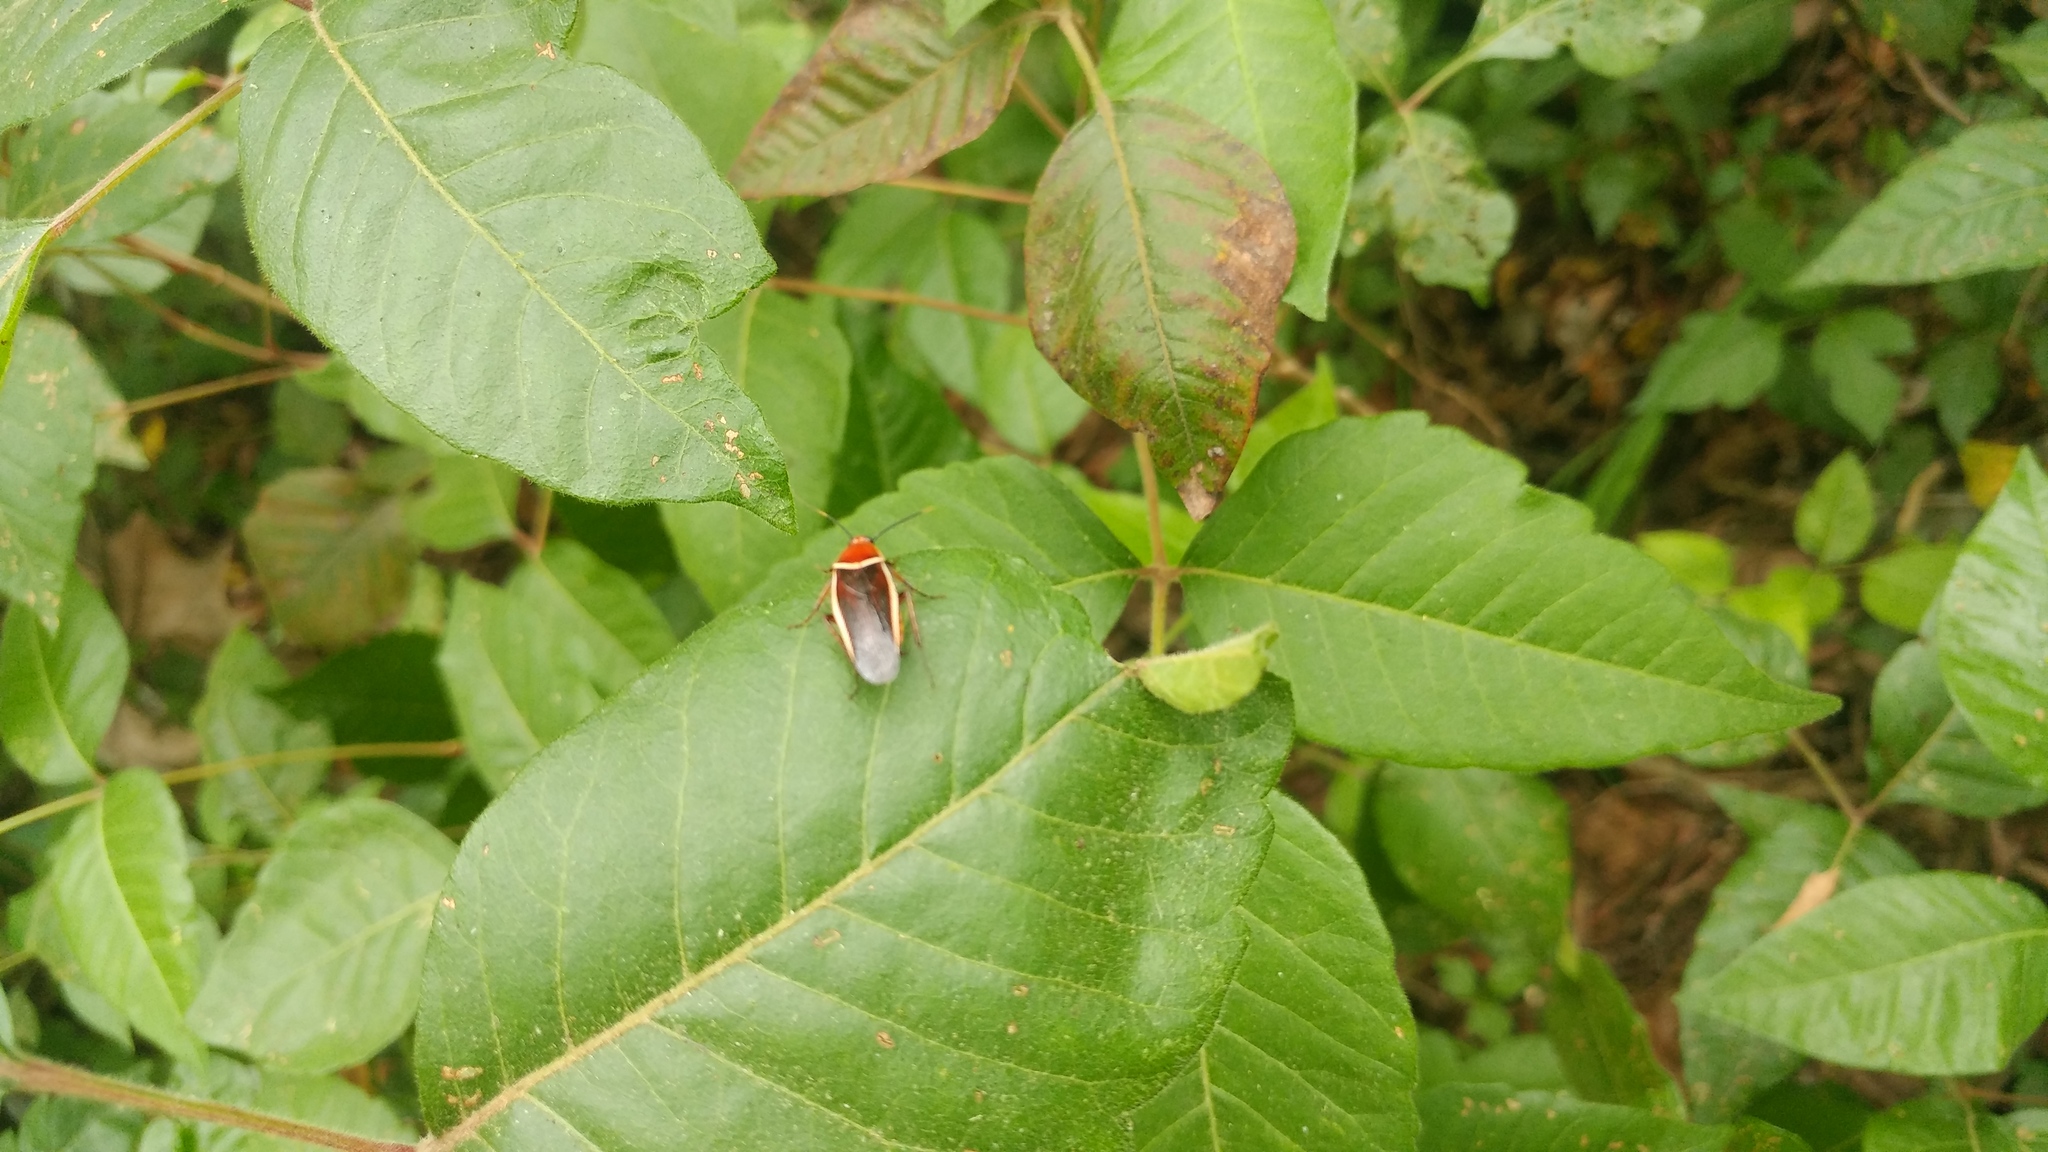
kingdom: Animalia
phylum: Arthropoda
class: Insecta
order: Blattodea
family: Ectobiidae
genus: Pseudomops
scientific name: Pseudomops septentrionalis
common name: Pale-bordered field cockroach
